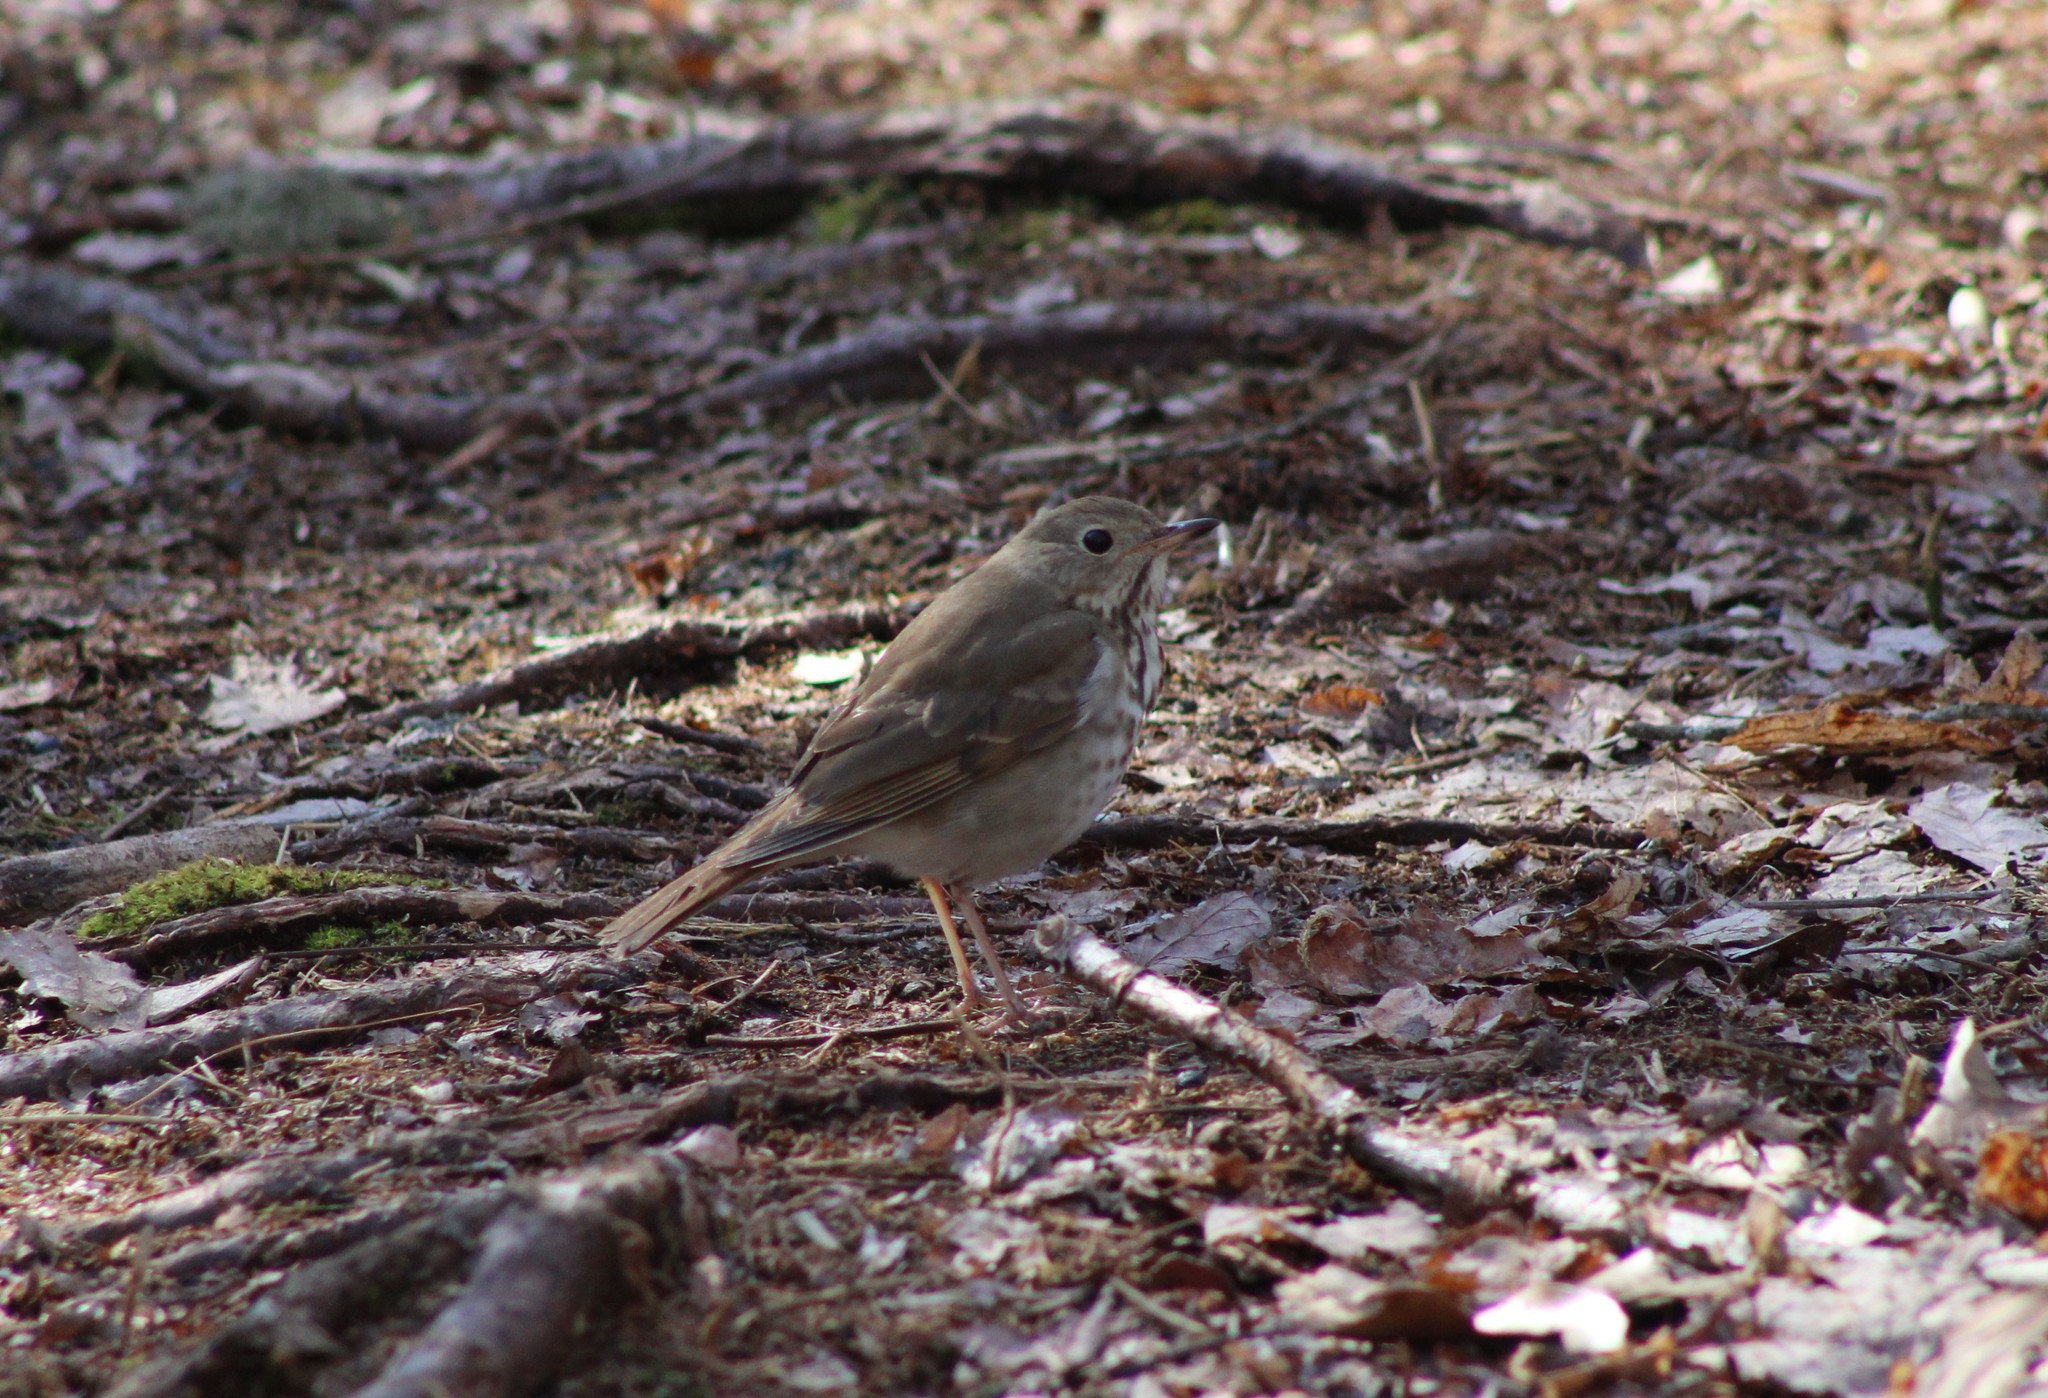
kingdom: Animalia
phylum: Chordata
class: Aves
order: Passeriformes
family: Turdidae
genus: Catharus
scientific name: Catharus guttatus
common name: Hermit thrush
